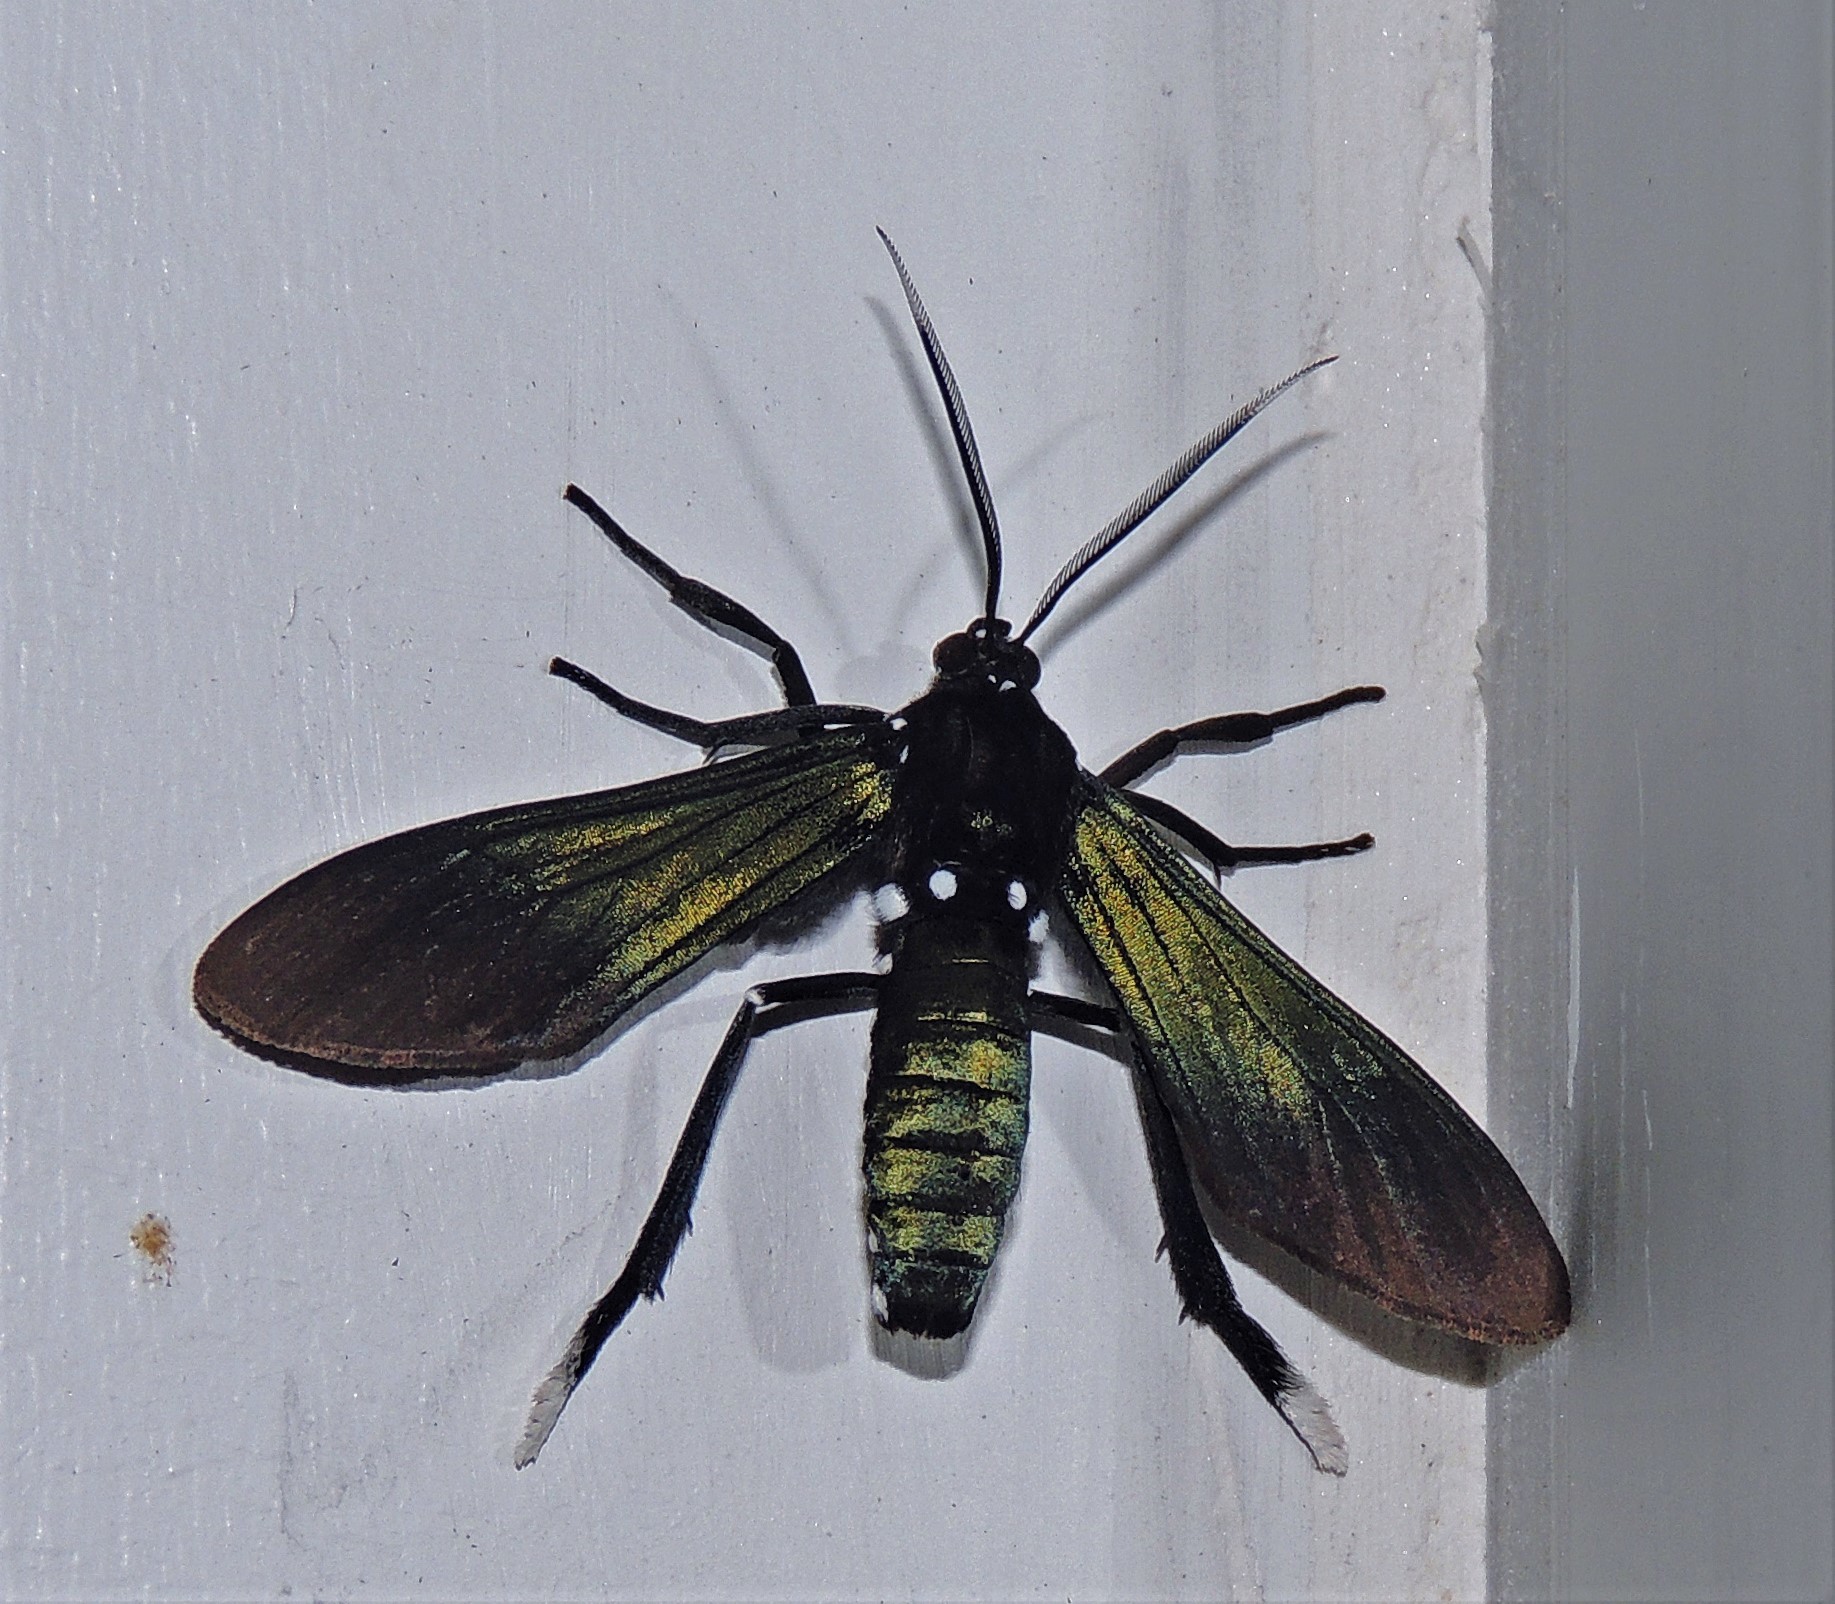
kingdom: Animalia
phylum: Arthropoda
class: Insecta
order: Lepidoptera
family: Erebidae
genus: Macrocneme
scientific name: Macrocneme
